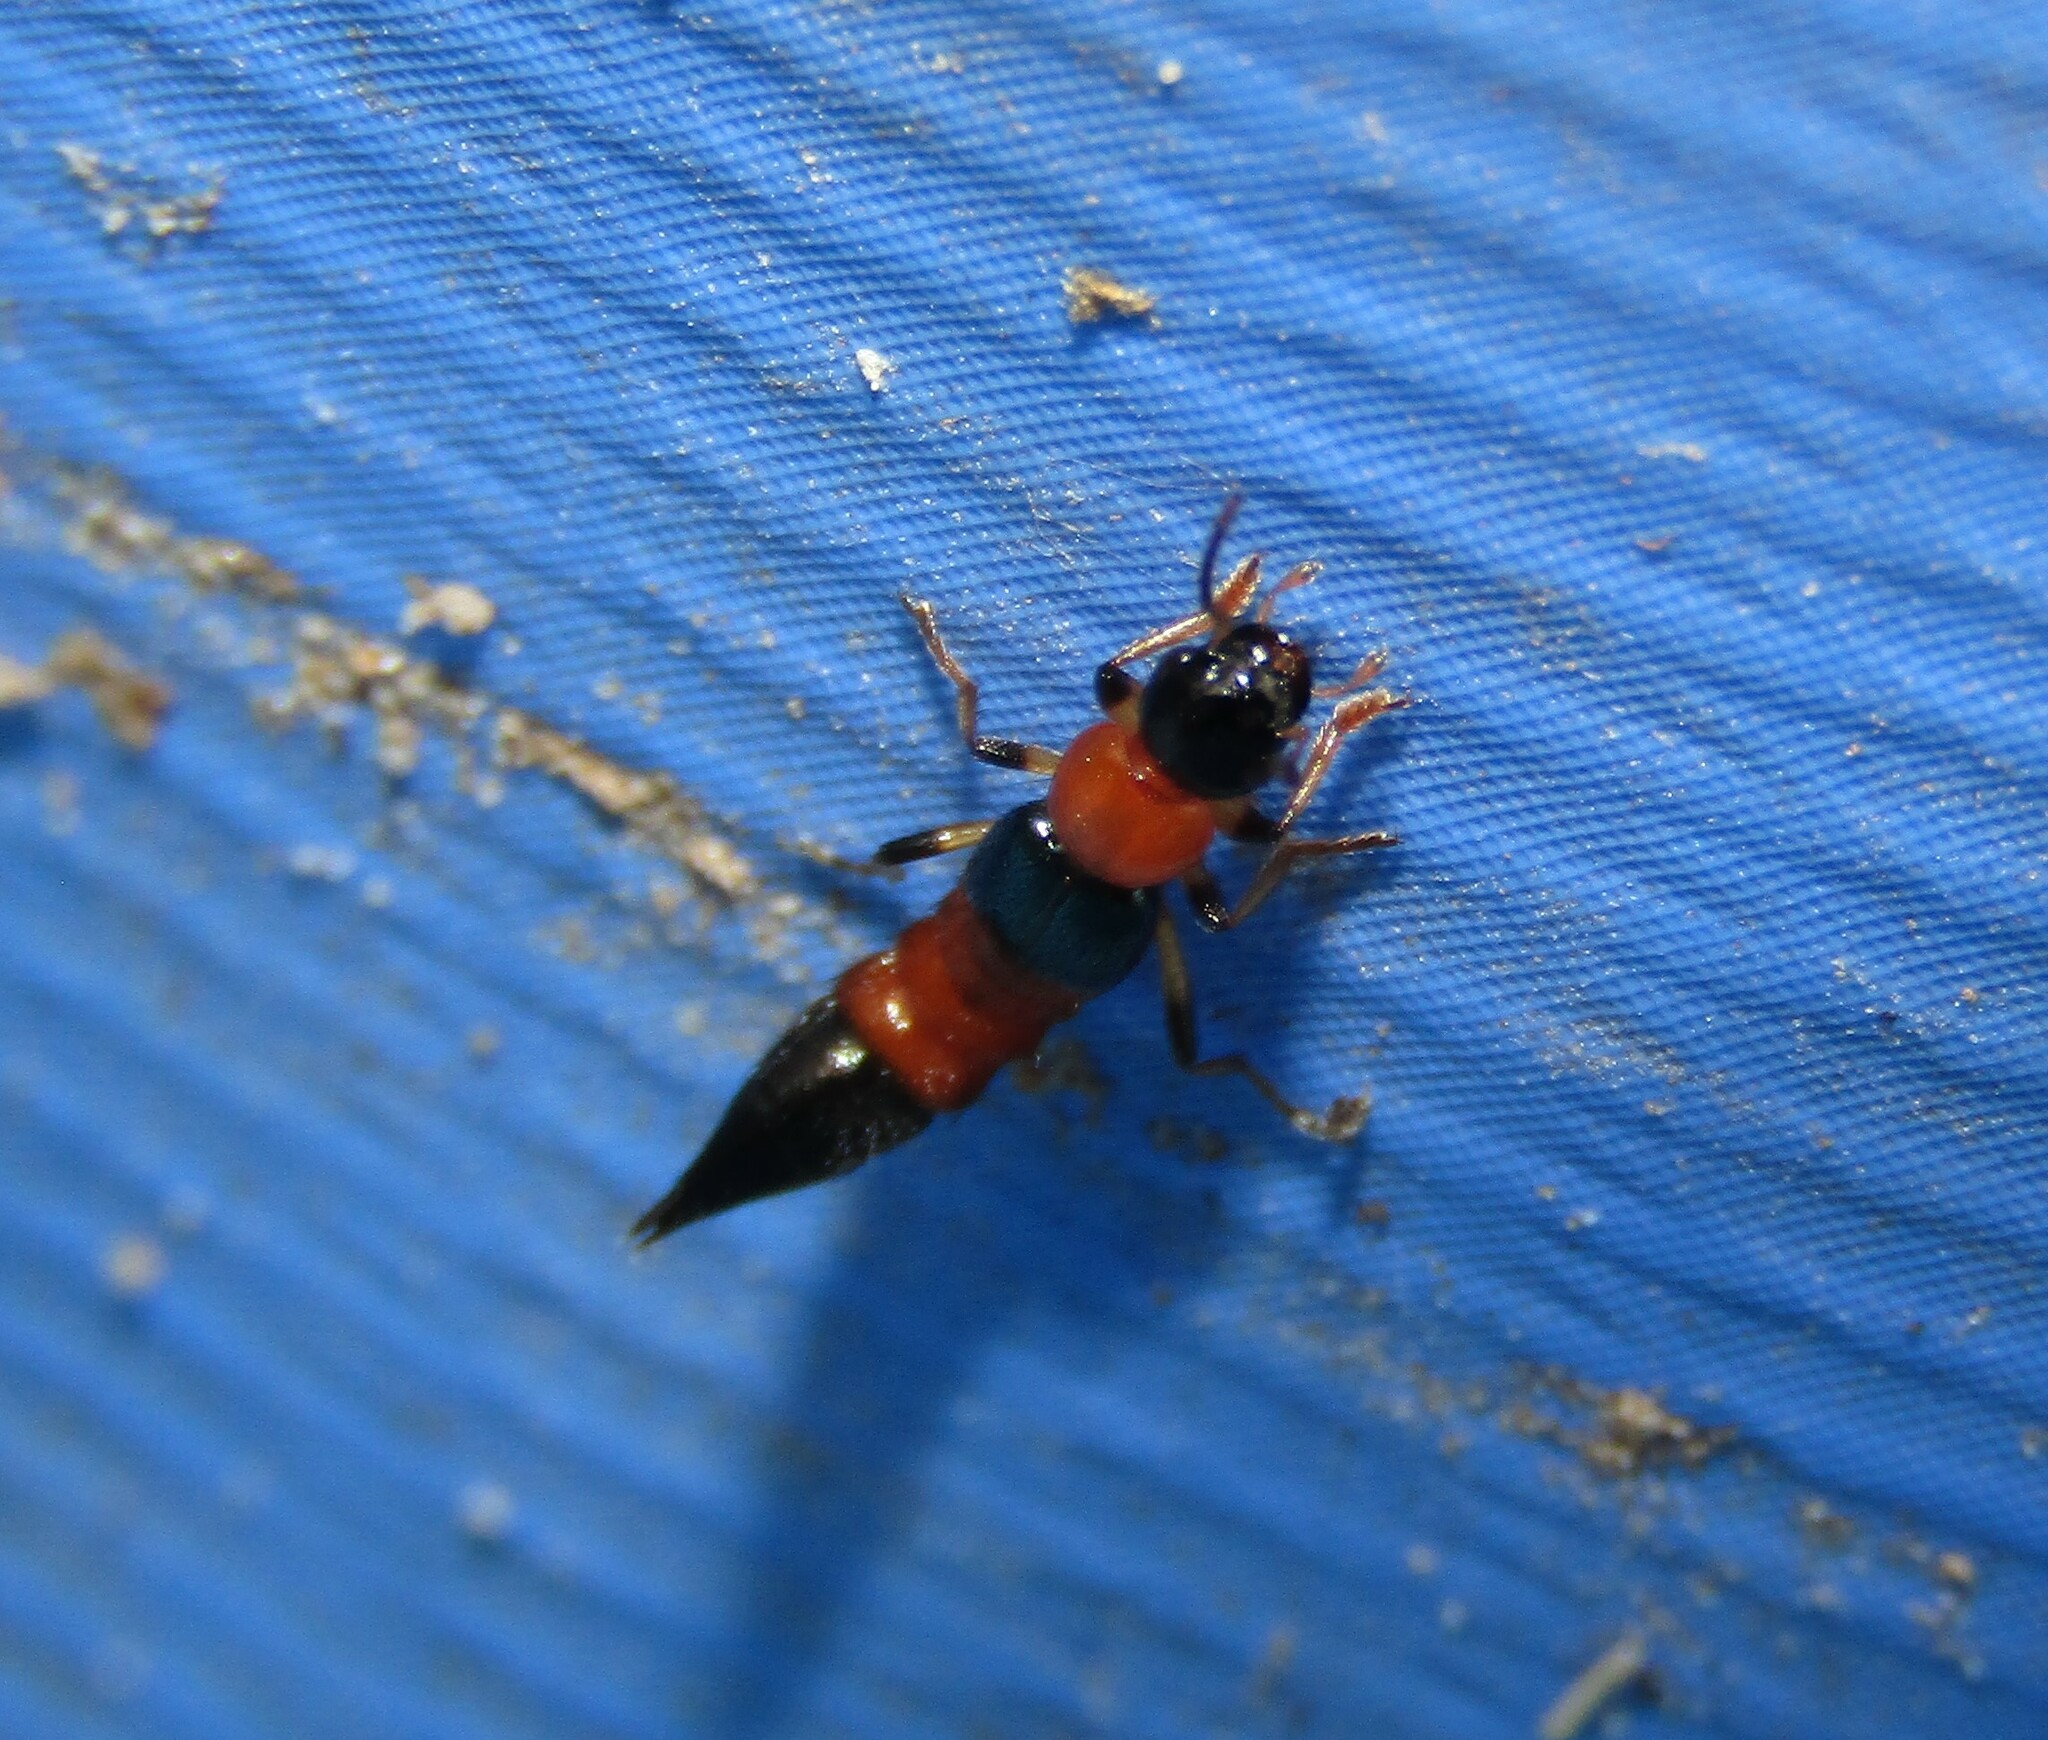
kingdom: Animalia
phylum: Arthropoda
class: Insecta
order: Coleoptera
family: Staphylinidae
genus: Paederus
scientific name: Paederus littoralis
